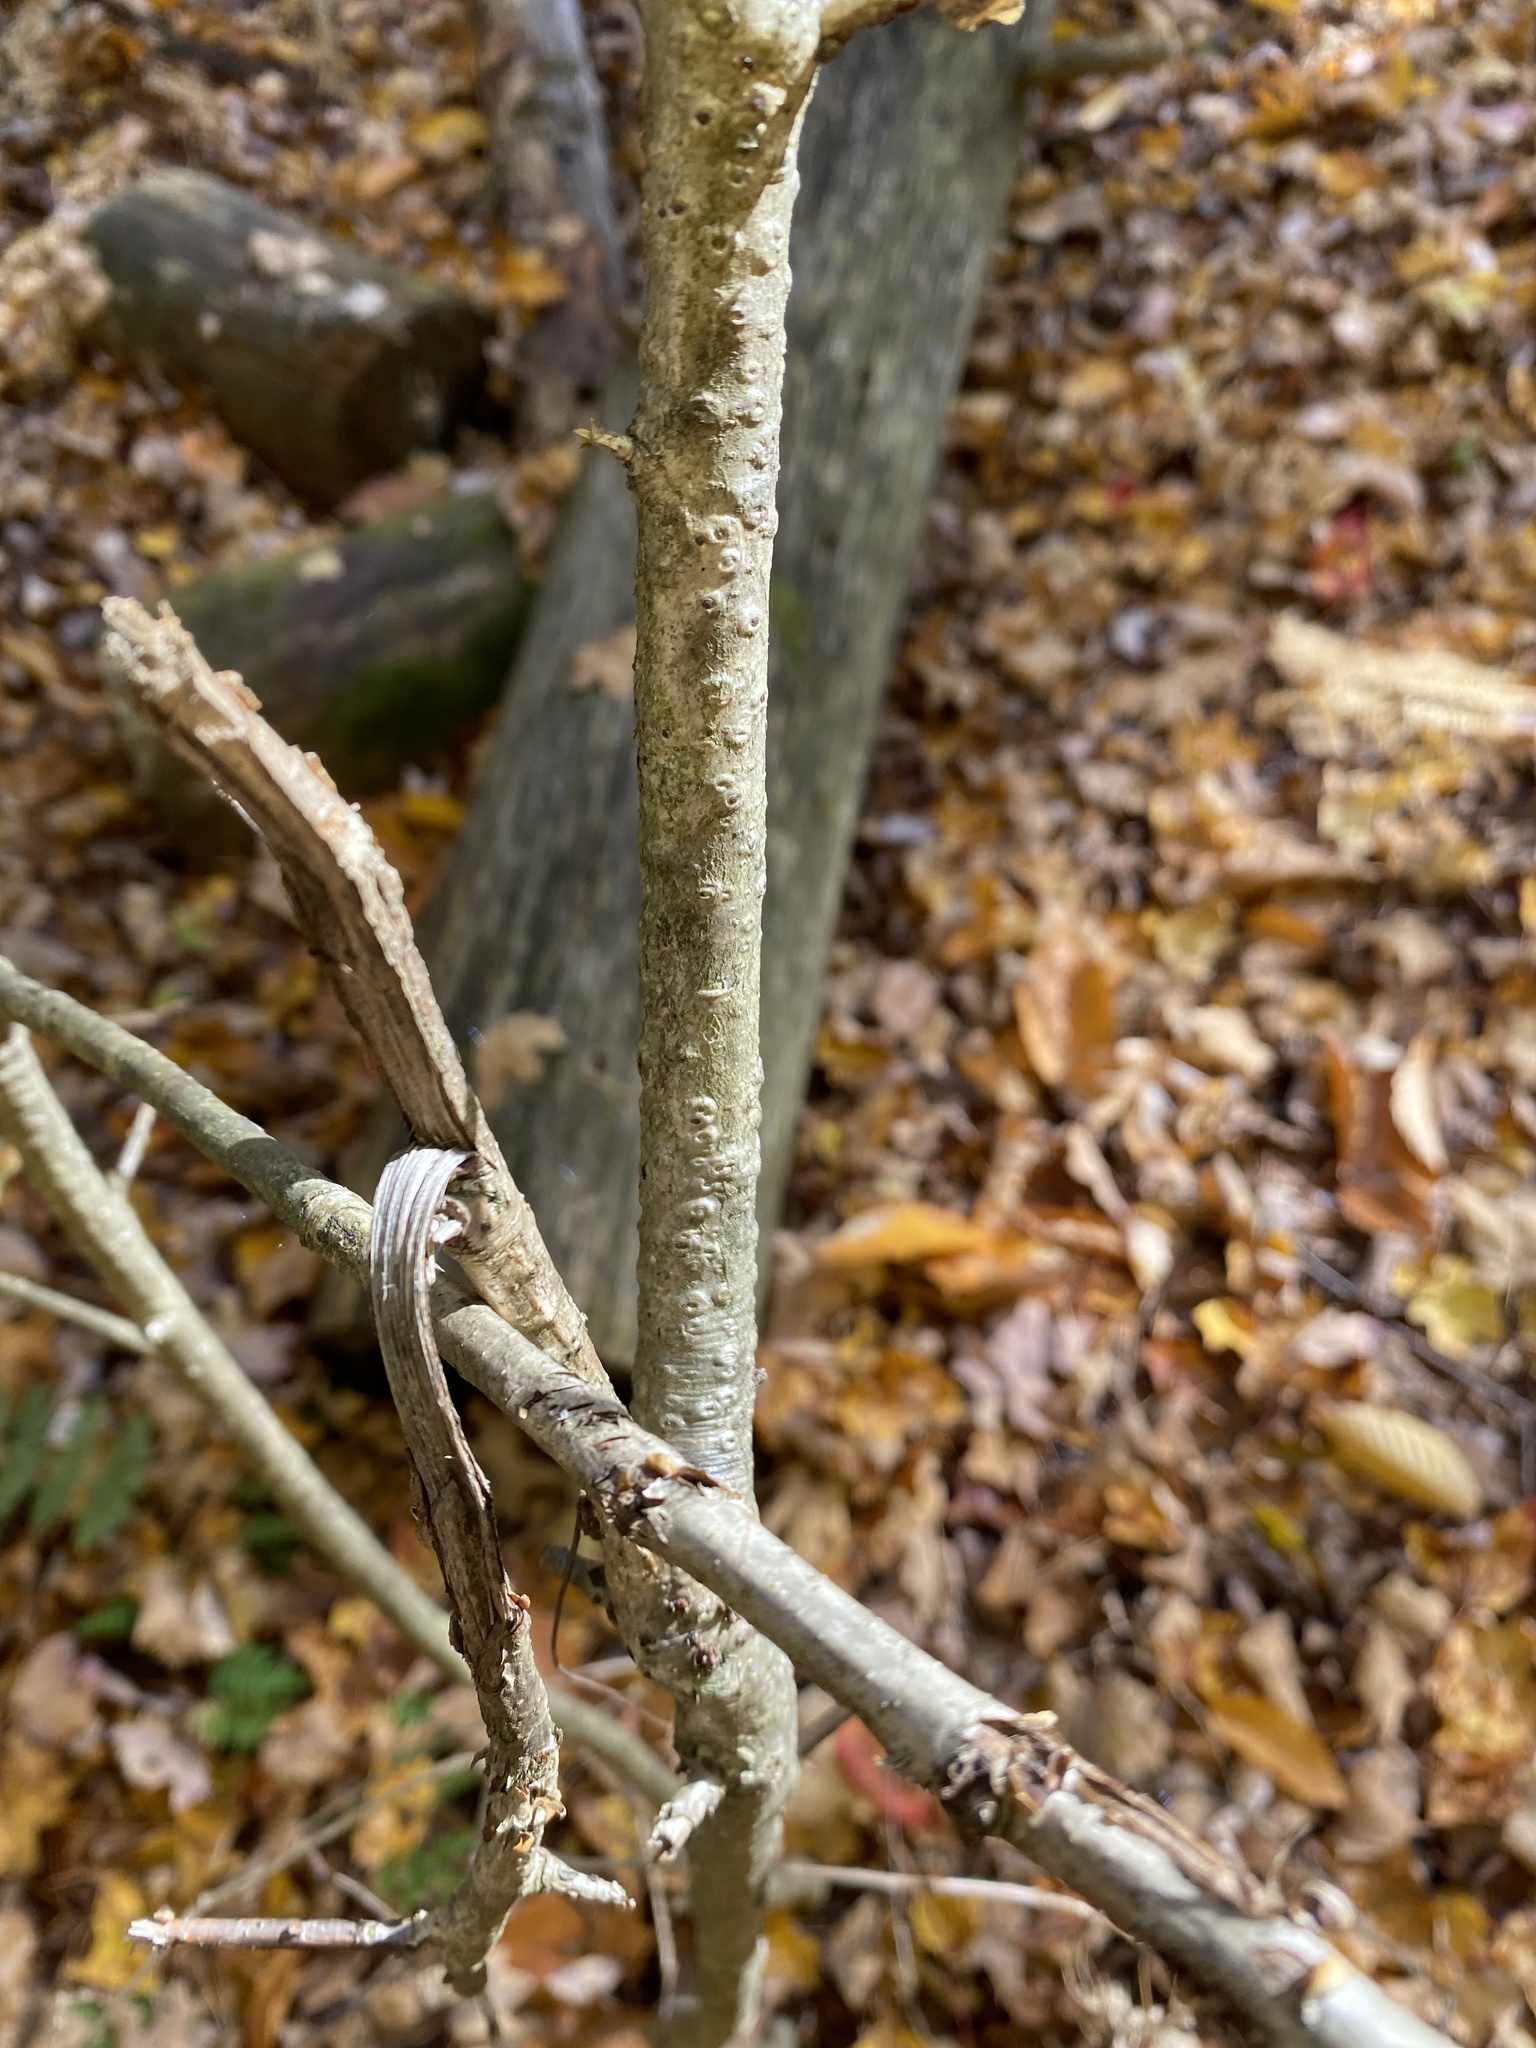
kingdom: Plantae
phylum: Tracheophyta
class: Magnoliopsida
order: Fagales
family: Fagaceae
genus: Quercus
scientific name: Quercus alba
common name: White oak
